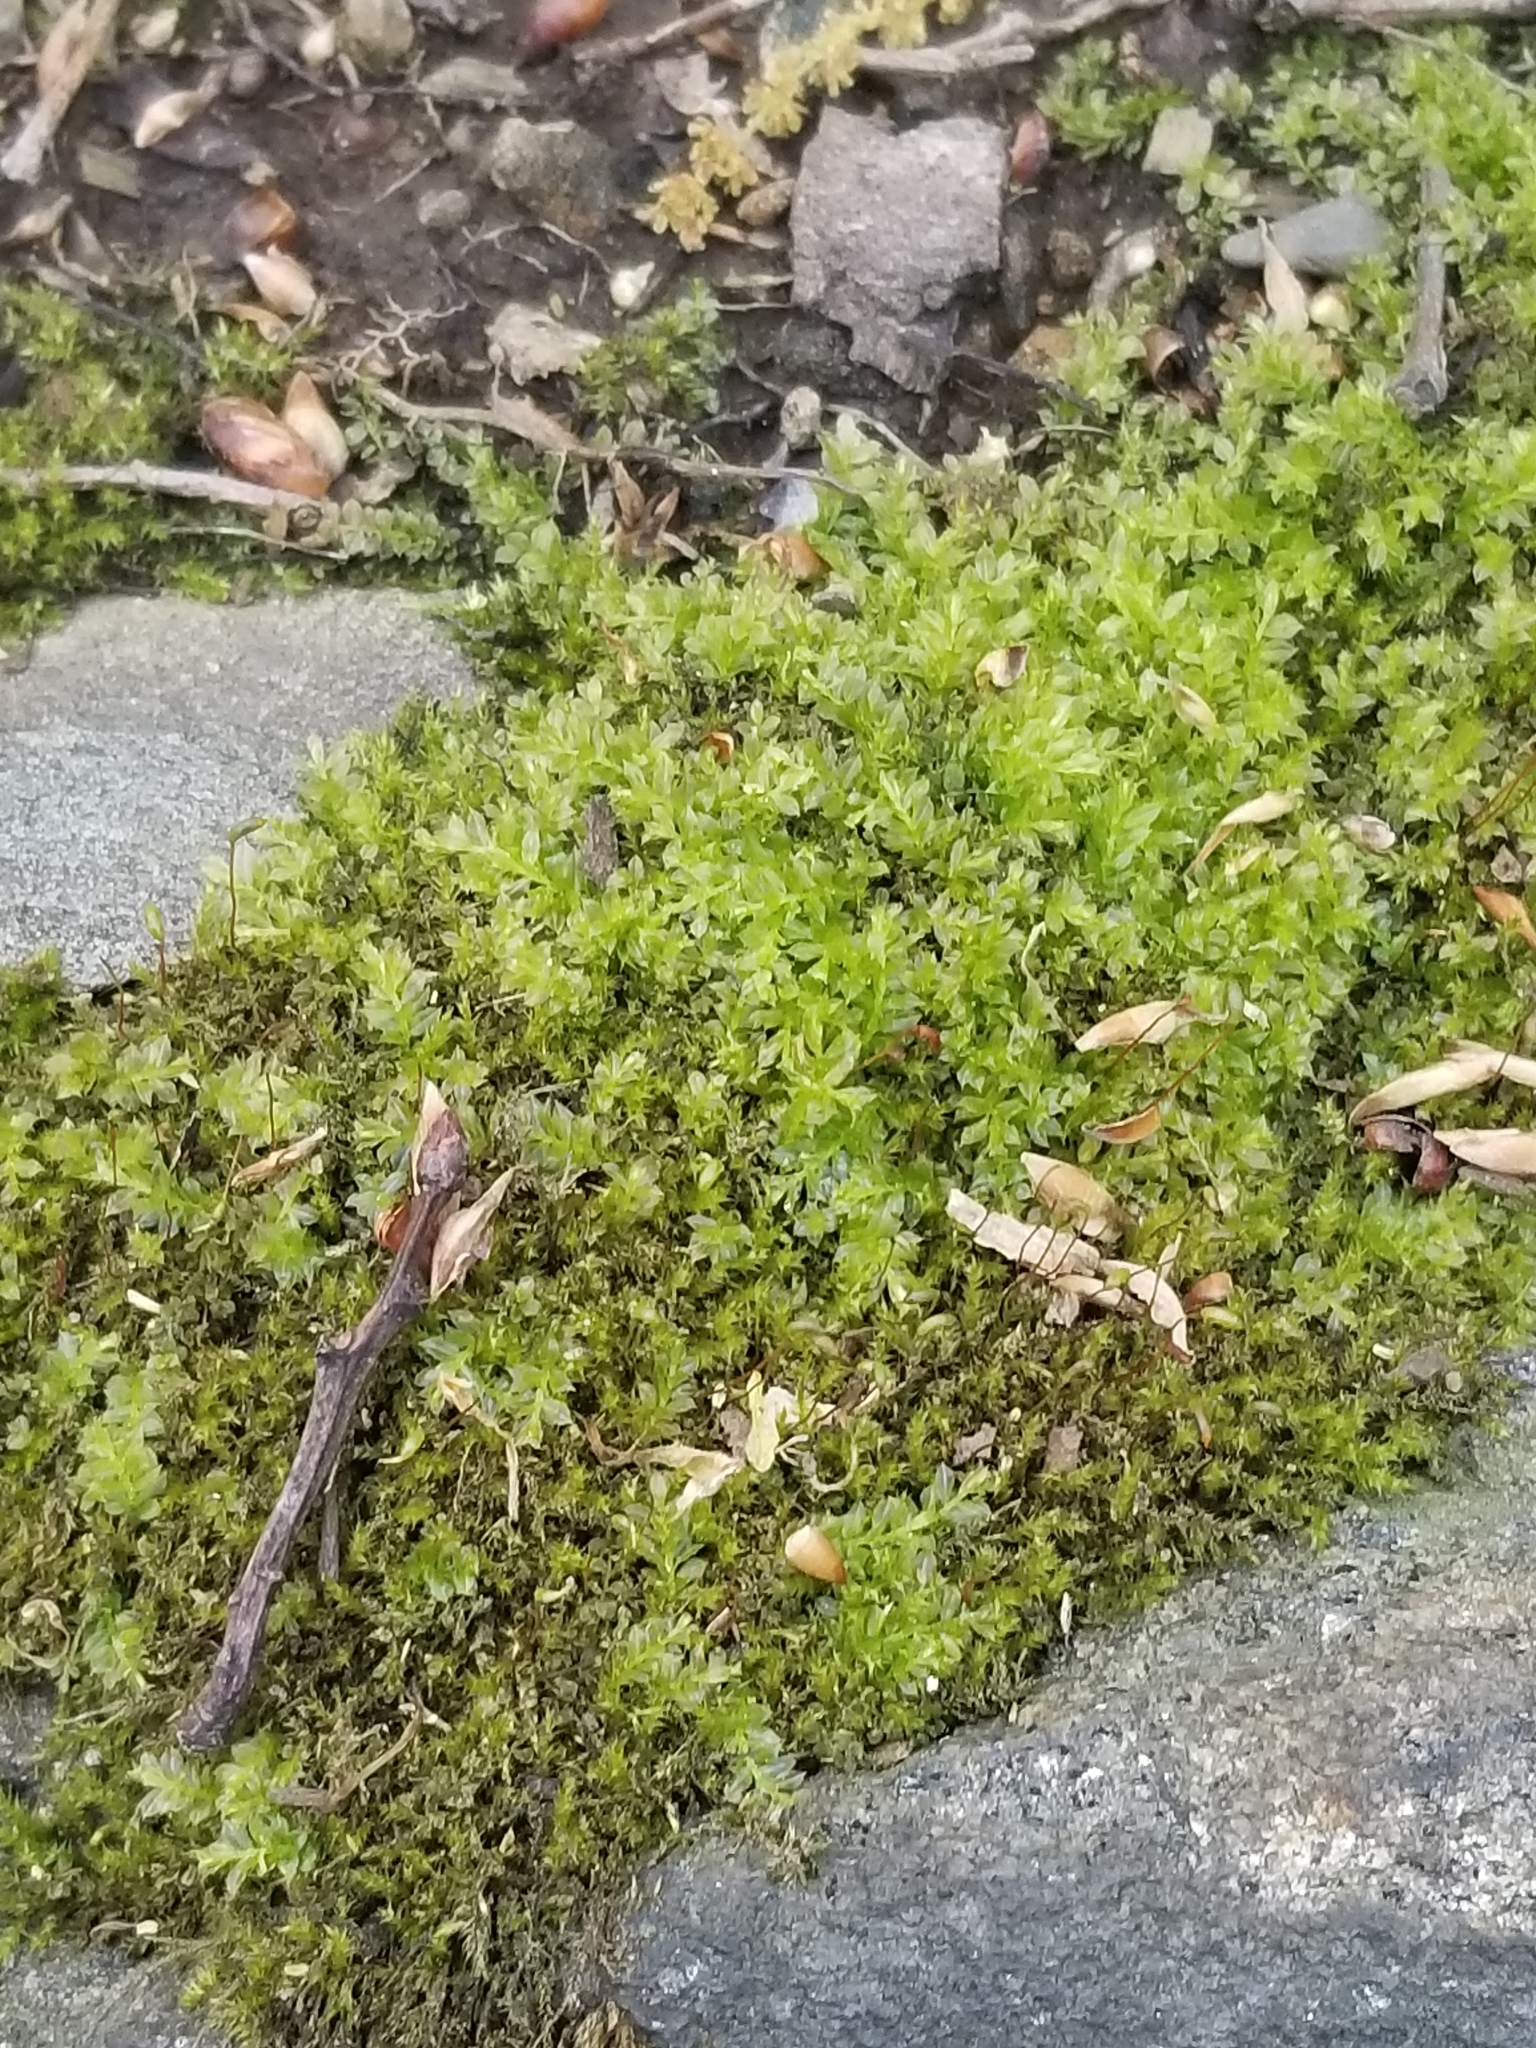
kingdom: Plantae
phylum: Bryophyta
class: Bryopsida
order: Bryales
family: Mniaceae
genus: Plagiomnium
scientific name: Plagiomnium cuspidatum
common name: Woodsy leafy moss
